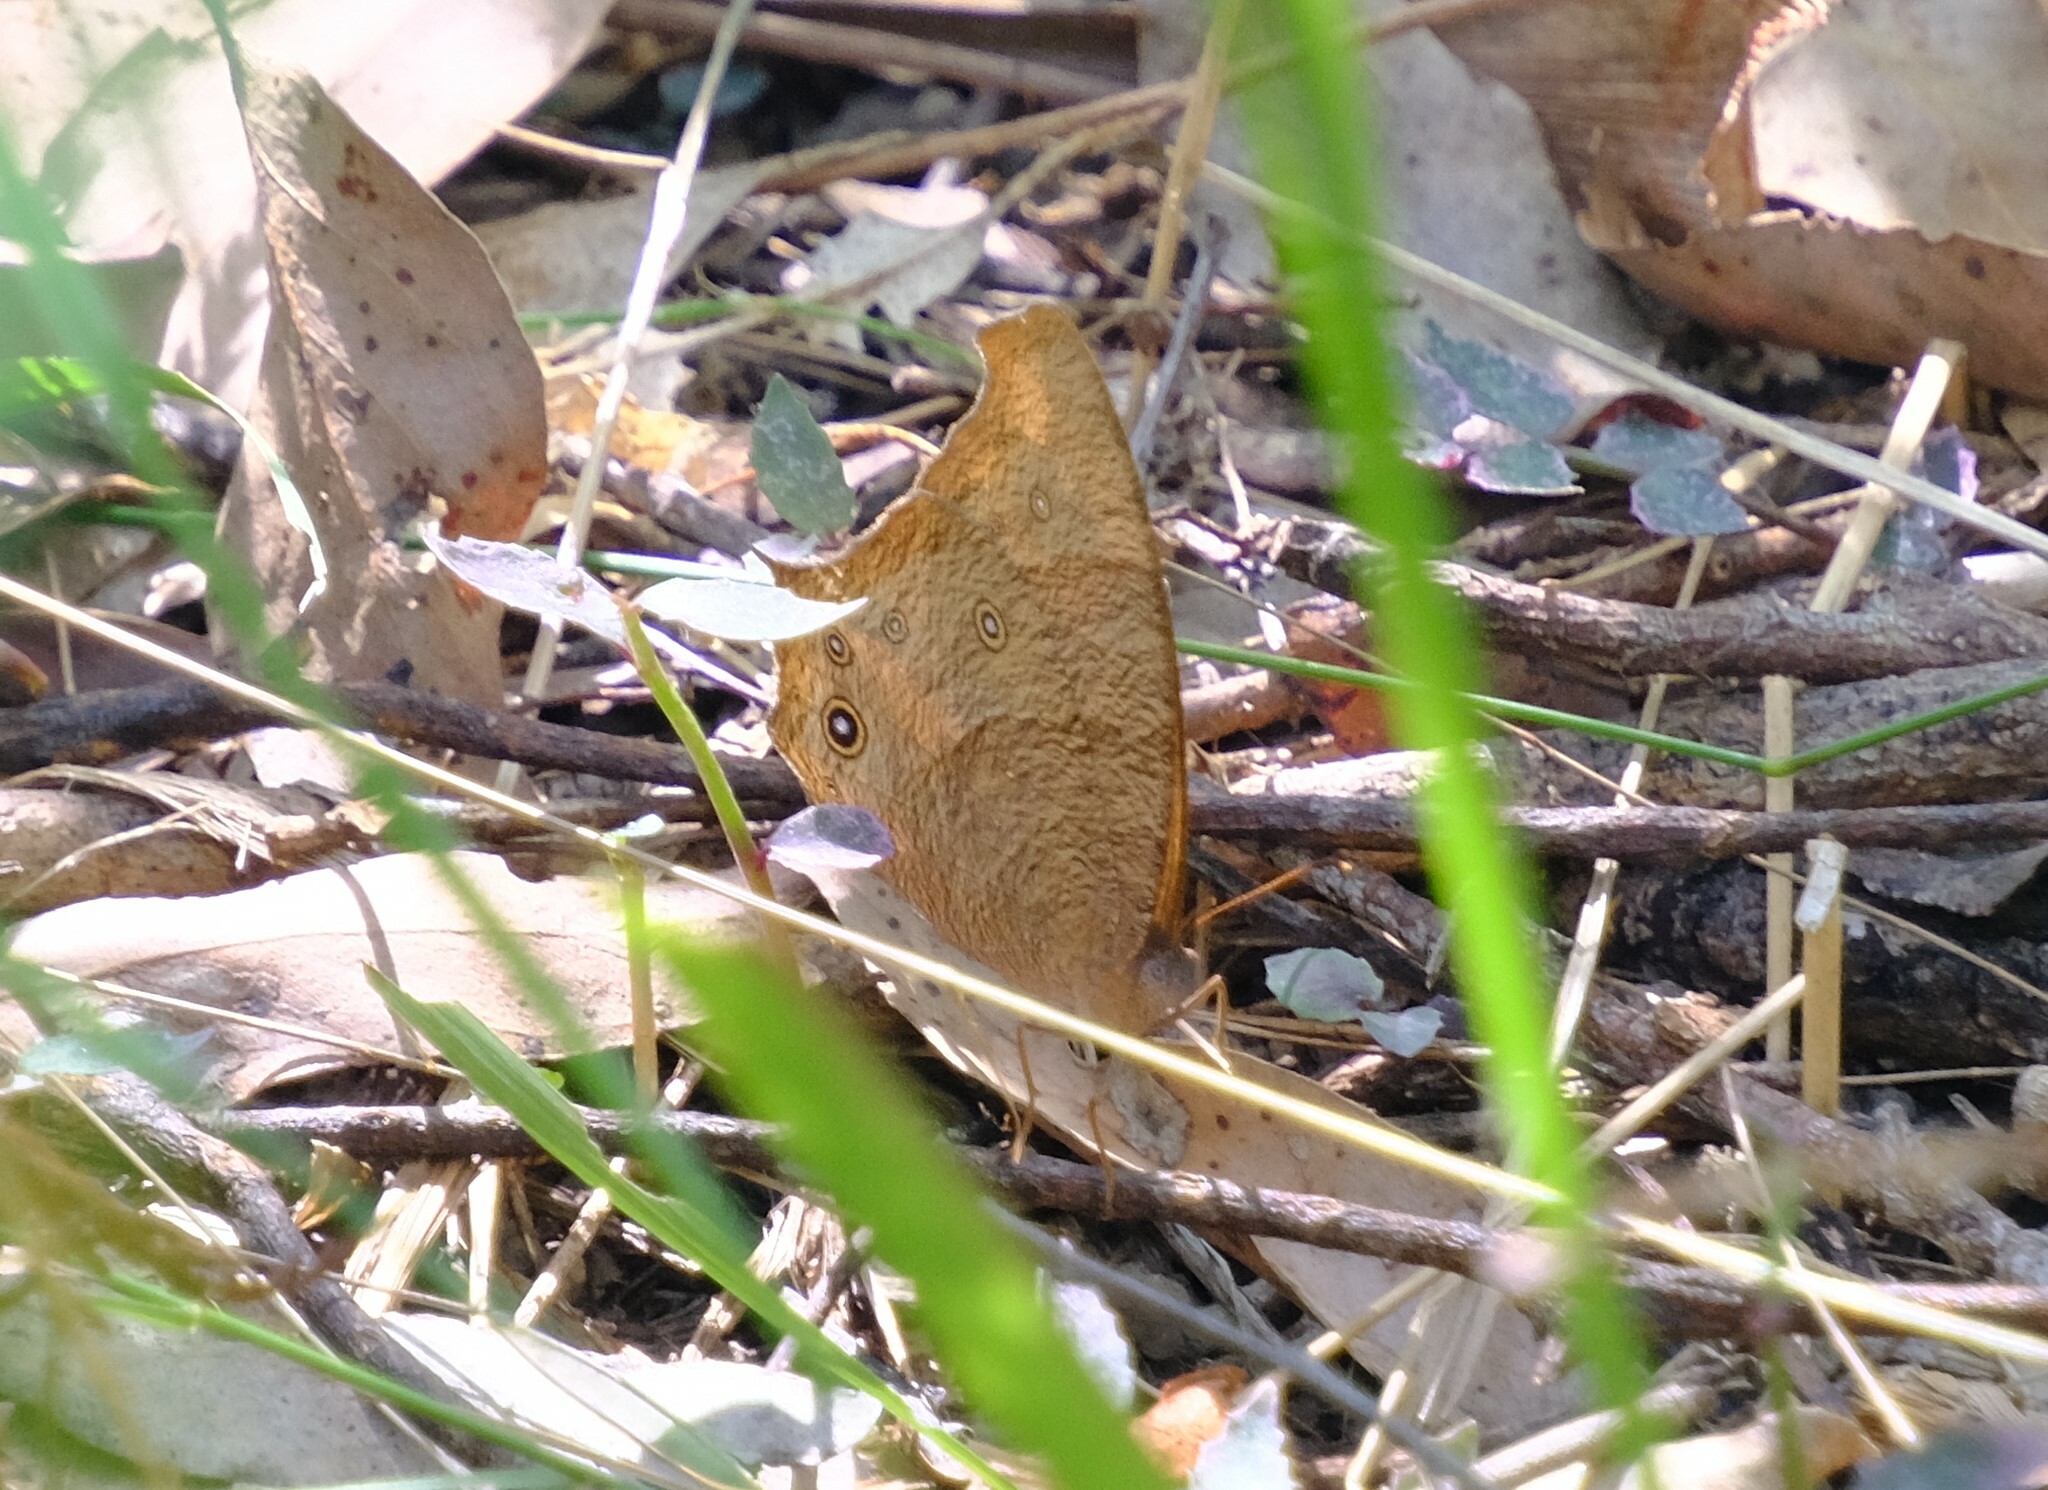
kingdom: Animalia
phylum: Arthropoda
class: Insecta
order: Lepidoptera
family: Nymphalidae
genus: Melanitis
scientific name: Melanitis leda
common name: Twilight brown
